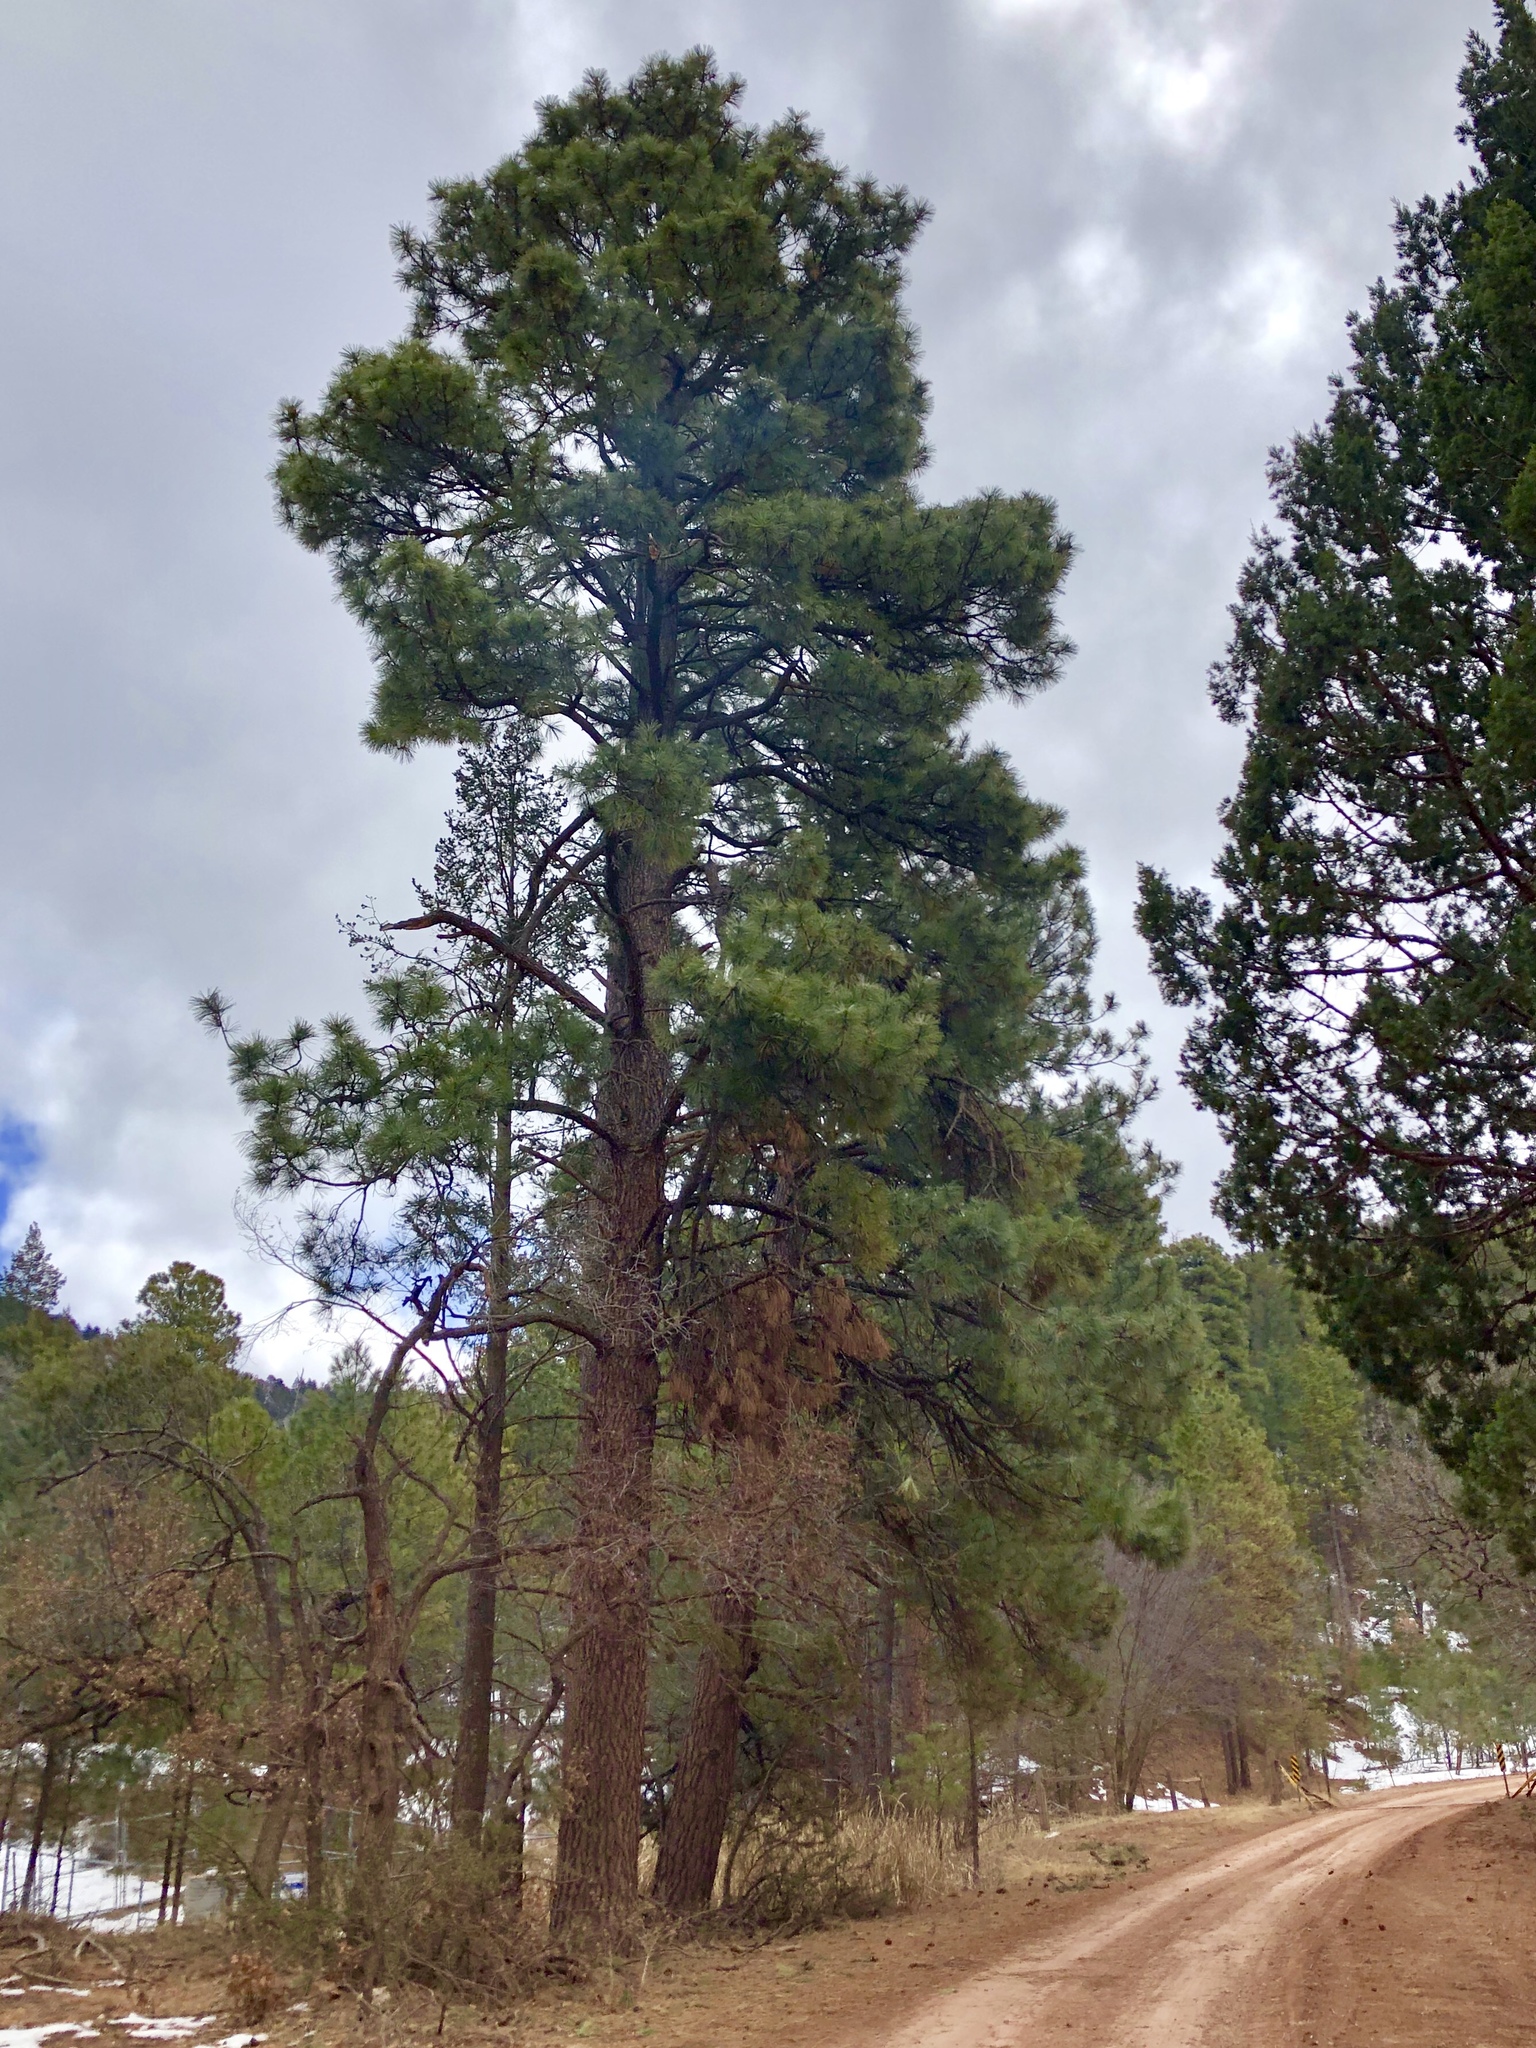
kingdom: Plantae
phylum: Tracheophyta
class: Pinopsida
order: Pinales
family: Pinaceae
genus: Pinus
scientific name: Pinus ponderosa
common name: Western yellow-pine
